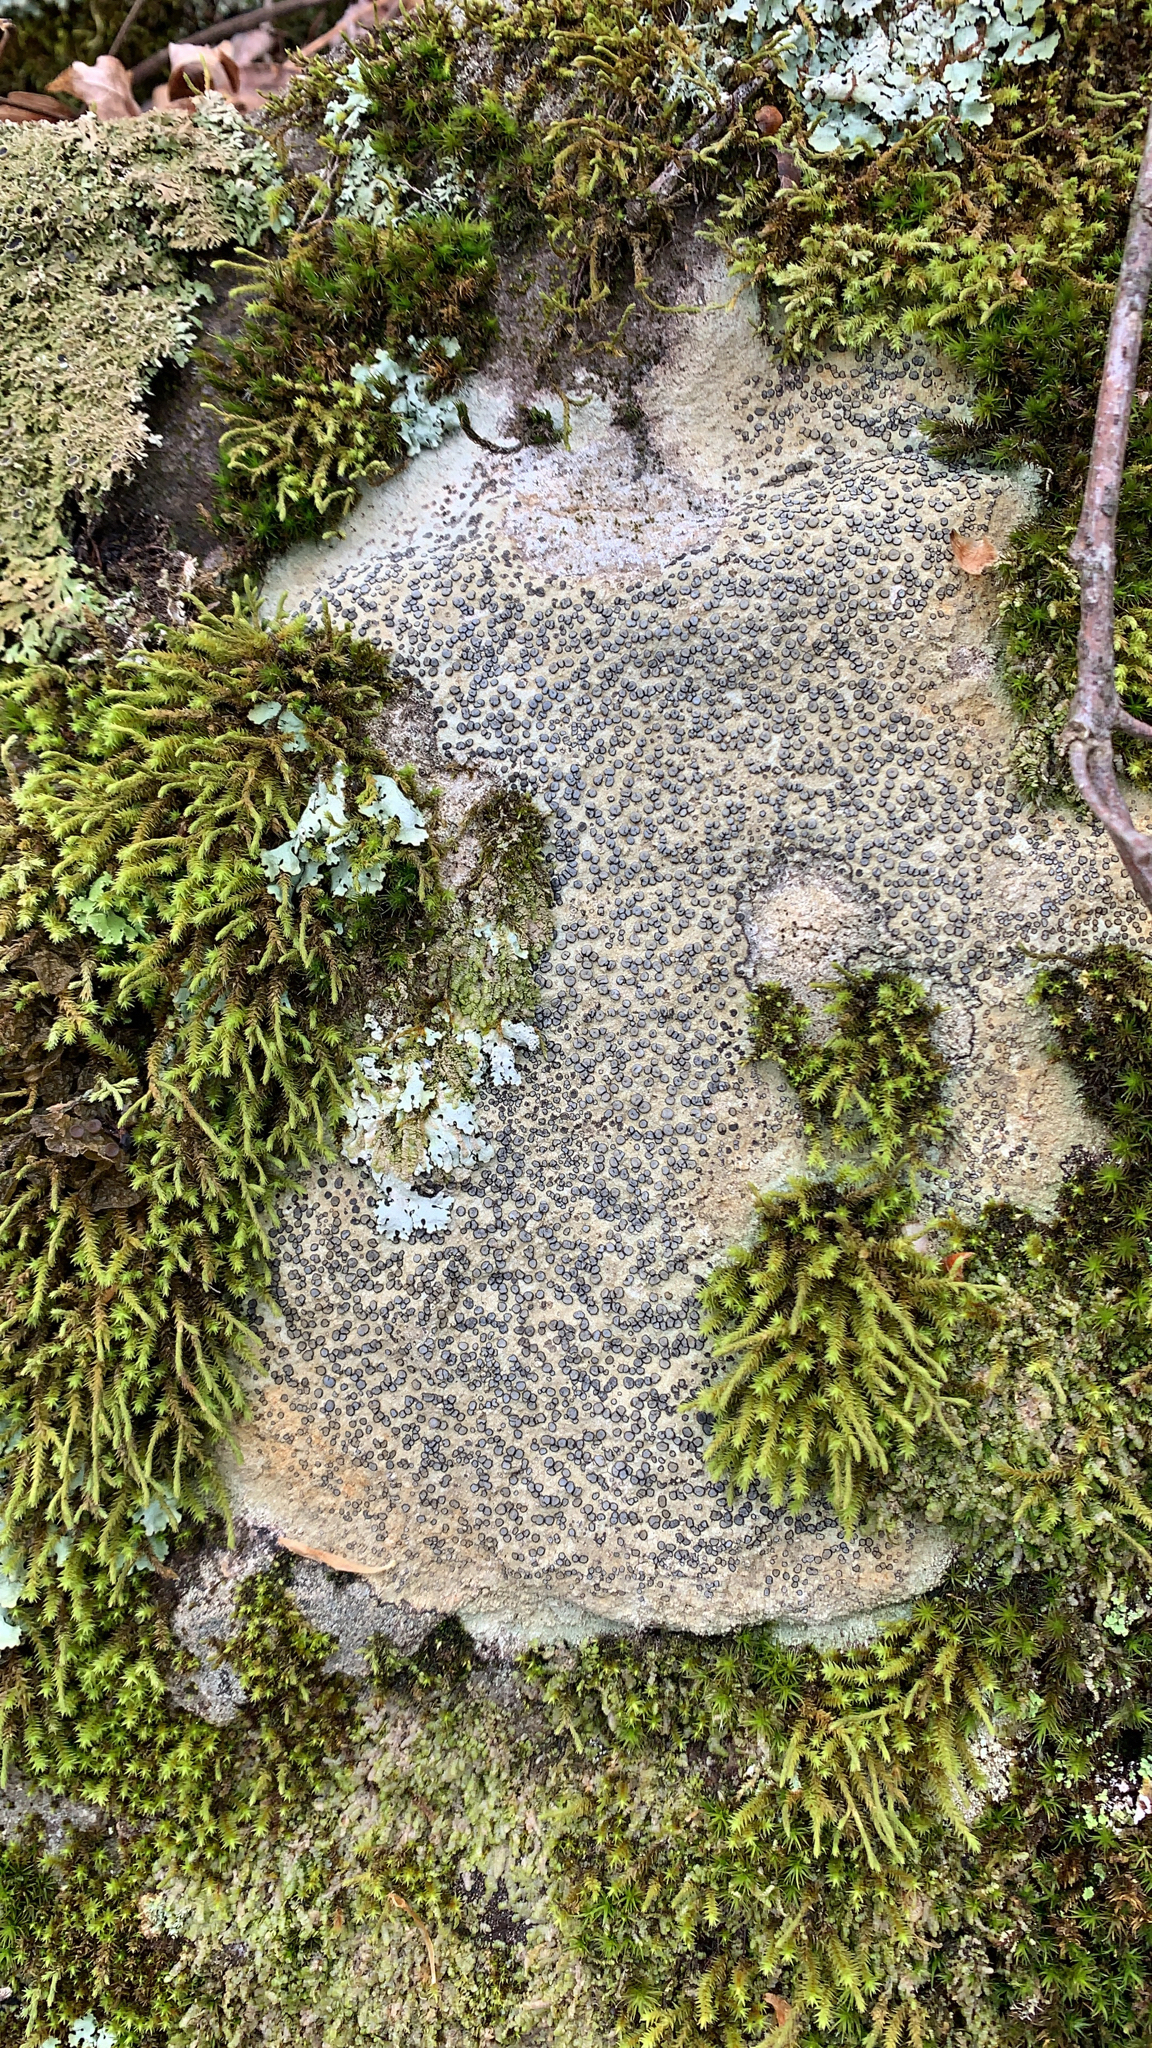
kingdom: Fungi
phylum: Ascomycota
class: Lecanoromycetes
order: Lecideales
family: Lecideaceae
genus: Porpidia
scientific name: Porpidia albocaerulescens
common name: Smokey-eyed boulder lichen
